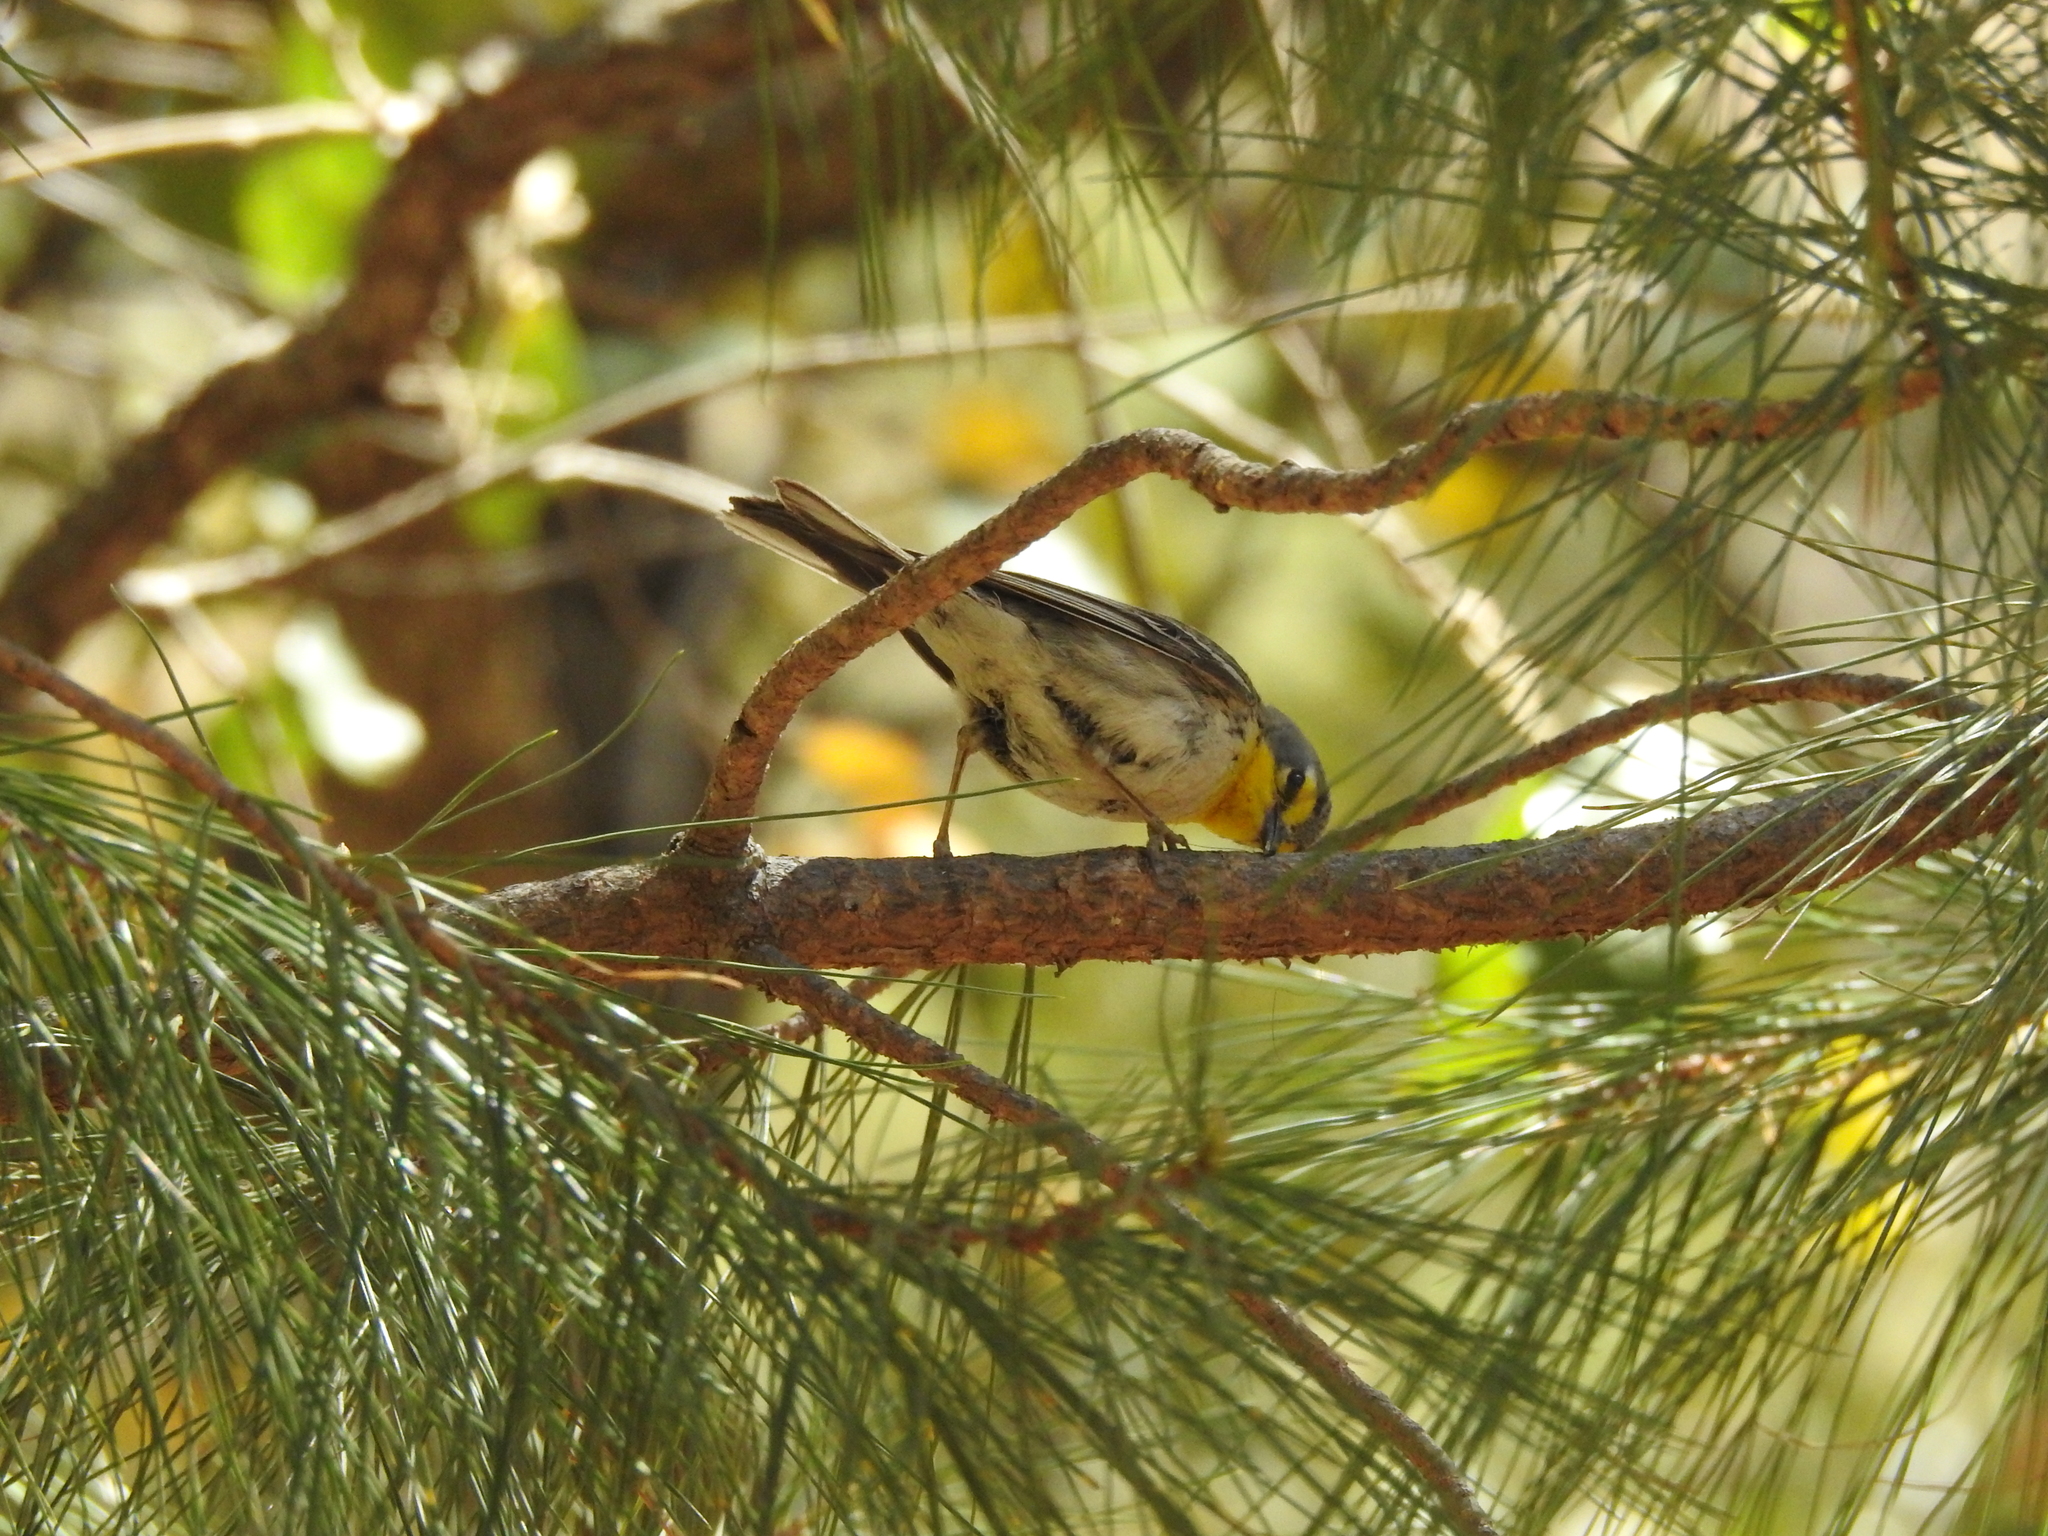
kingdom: Animalia
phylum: Chordata
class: Aves
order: Passeriformes
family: Parulidae
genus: Setophaga
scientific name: Setophaga graciae
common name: Grace's warbler
